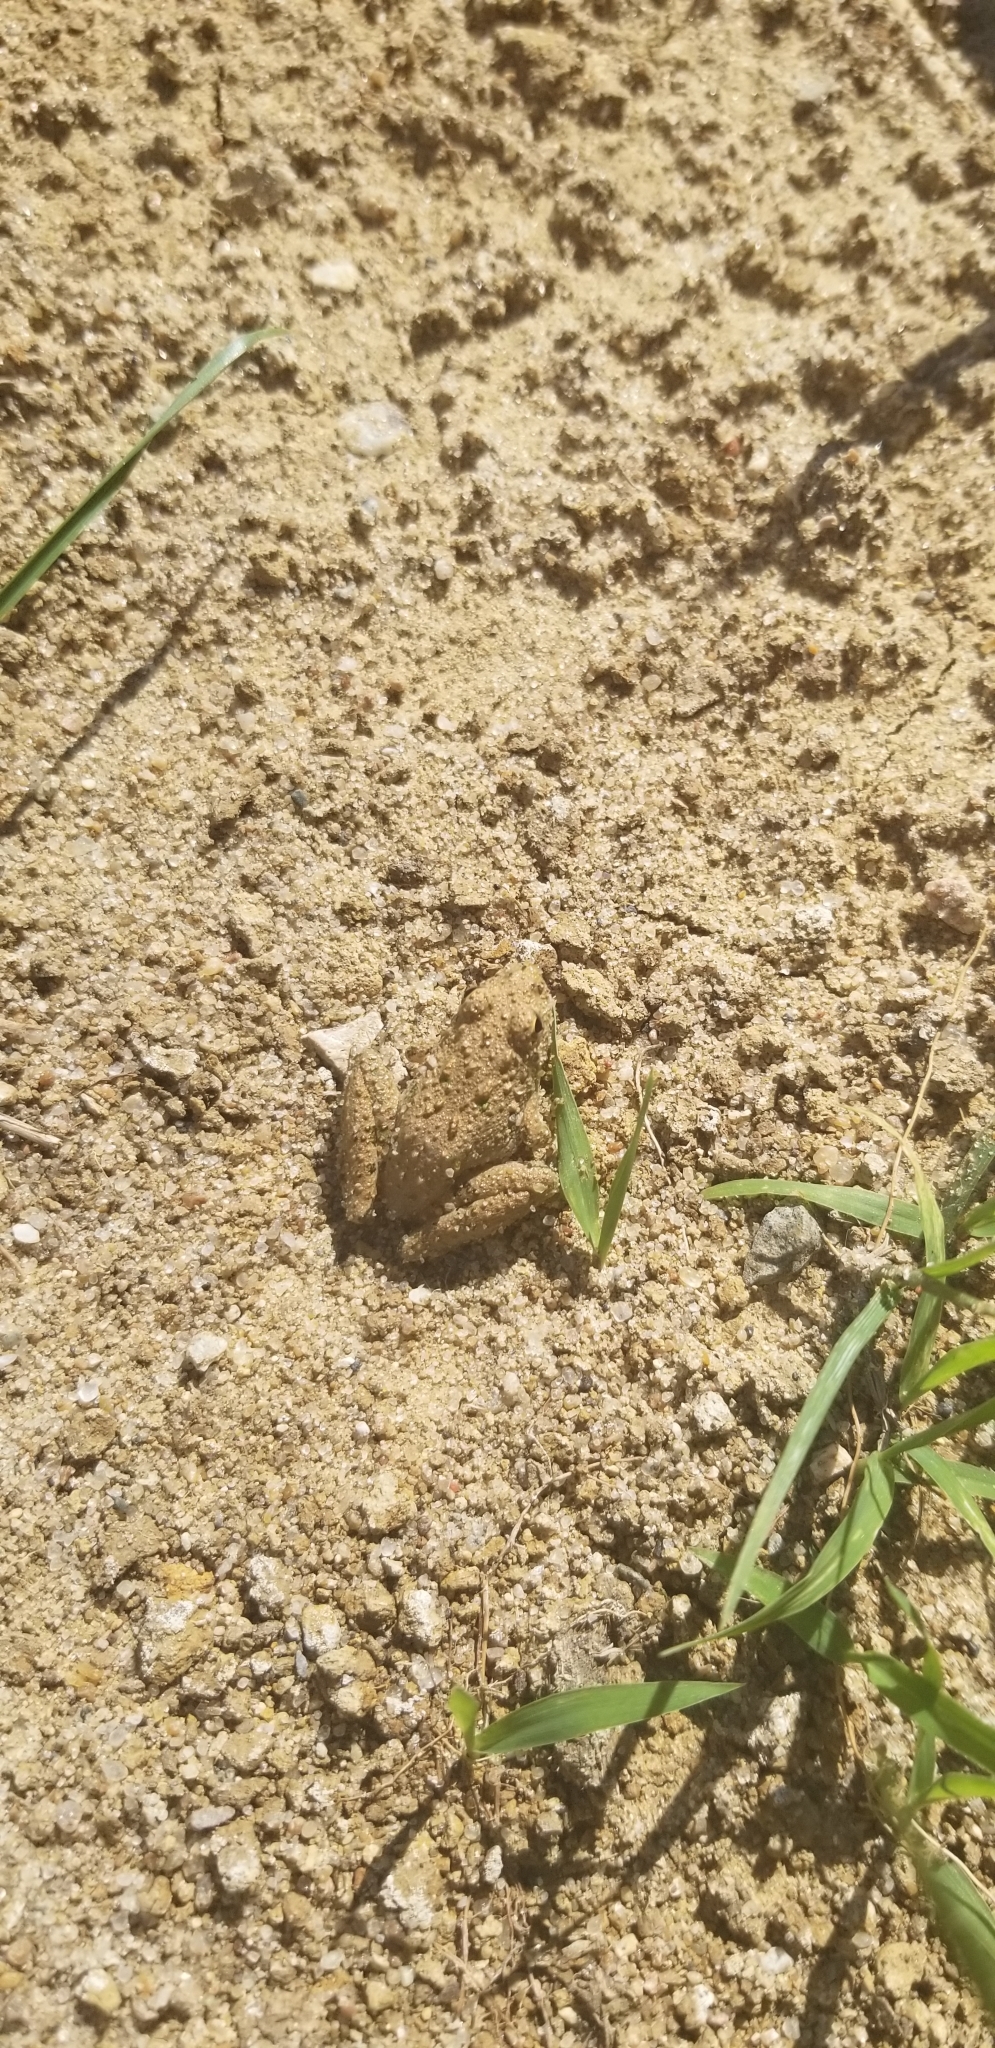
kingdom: Animalia
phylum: Chordata
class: Amphibia
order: Anura
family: Hylidae
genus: Acris
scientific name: Acris blanchardi
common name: Blanchard's cricket frog
